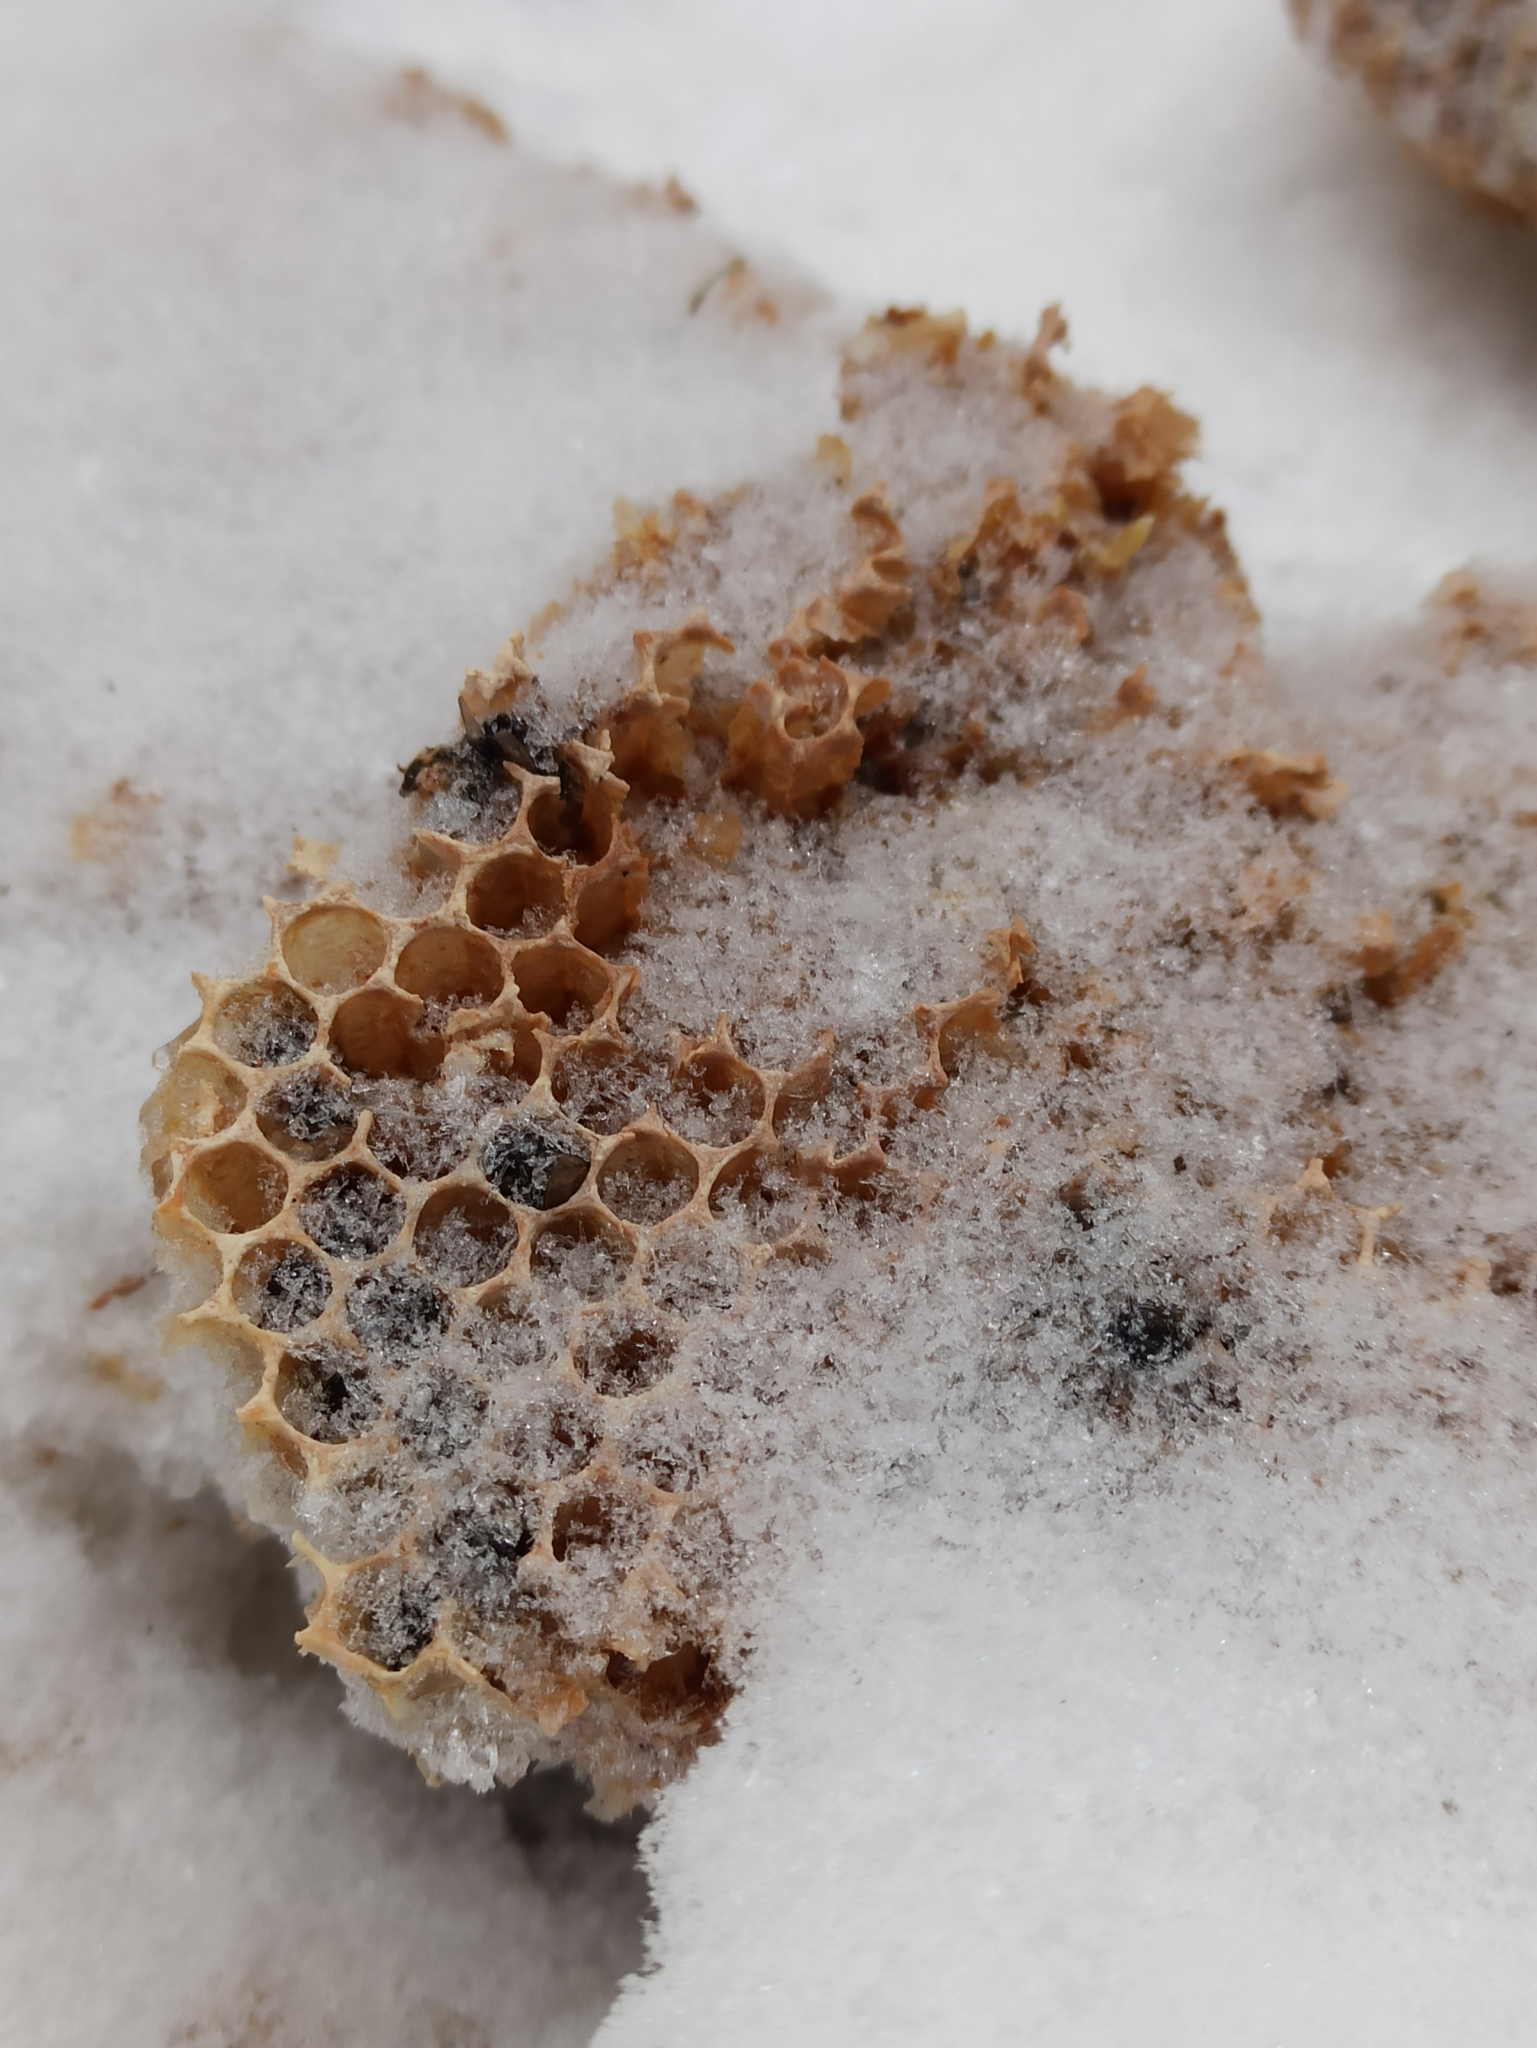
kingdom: Animalia
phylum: Arthropoda
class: Insecta
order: Hymenoptera
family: Apidae
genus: Apis
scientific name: Apis mellifera
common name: Honey bee
